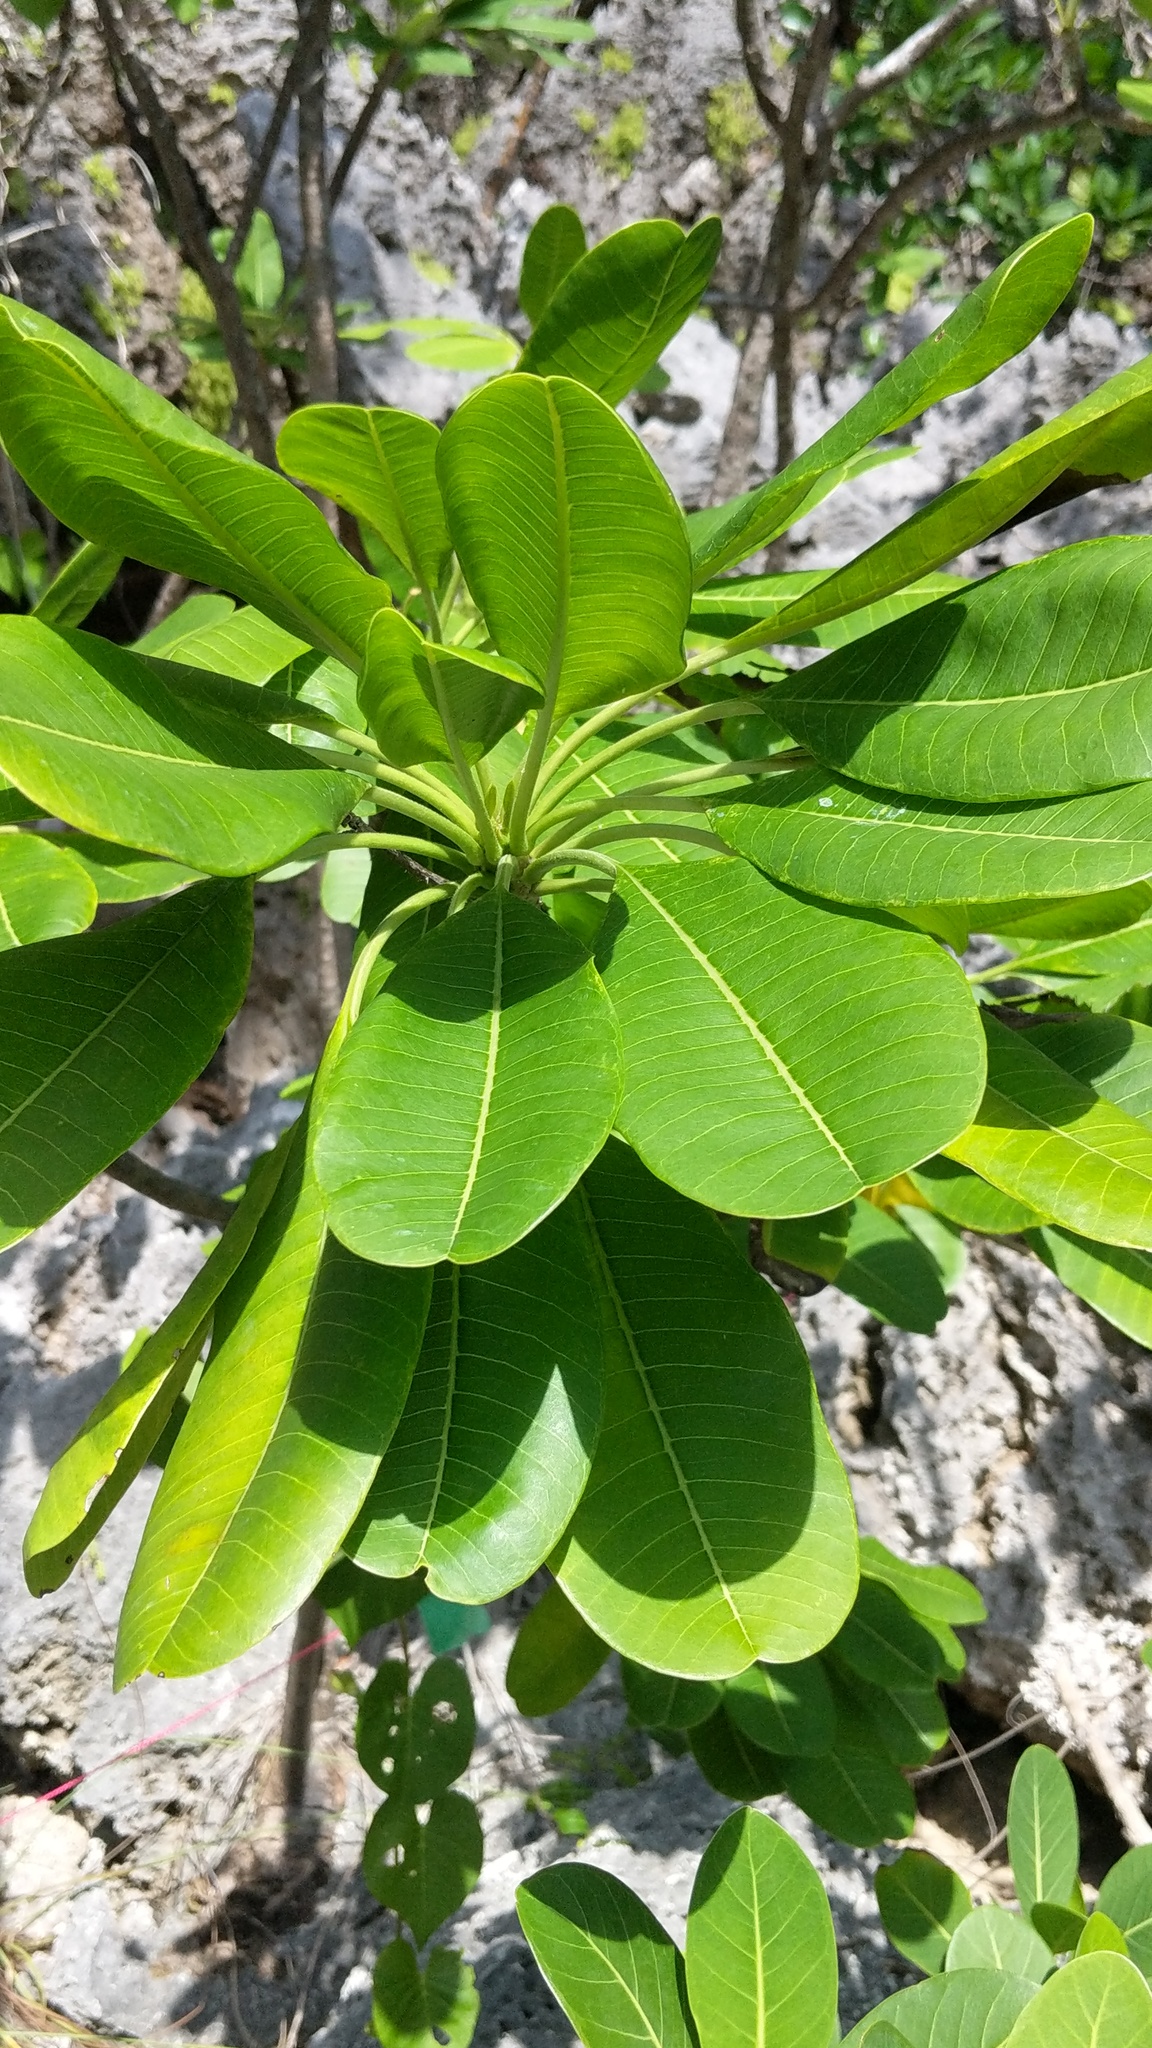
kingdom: Plantae
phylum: Tracheophyta
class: Magnoliopsida
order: Gentianales
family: Apocynaceae
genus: Plumeria
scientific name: Plumeria obtusa
